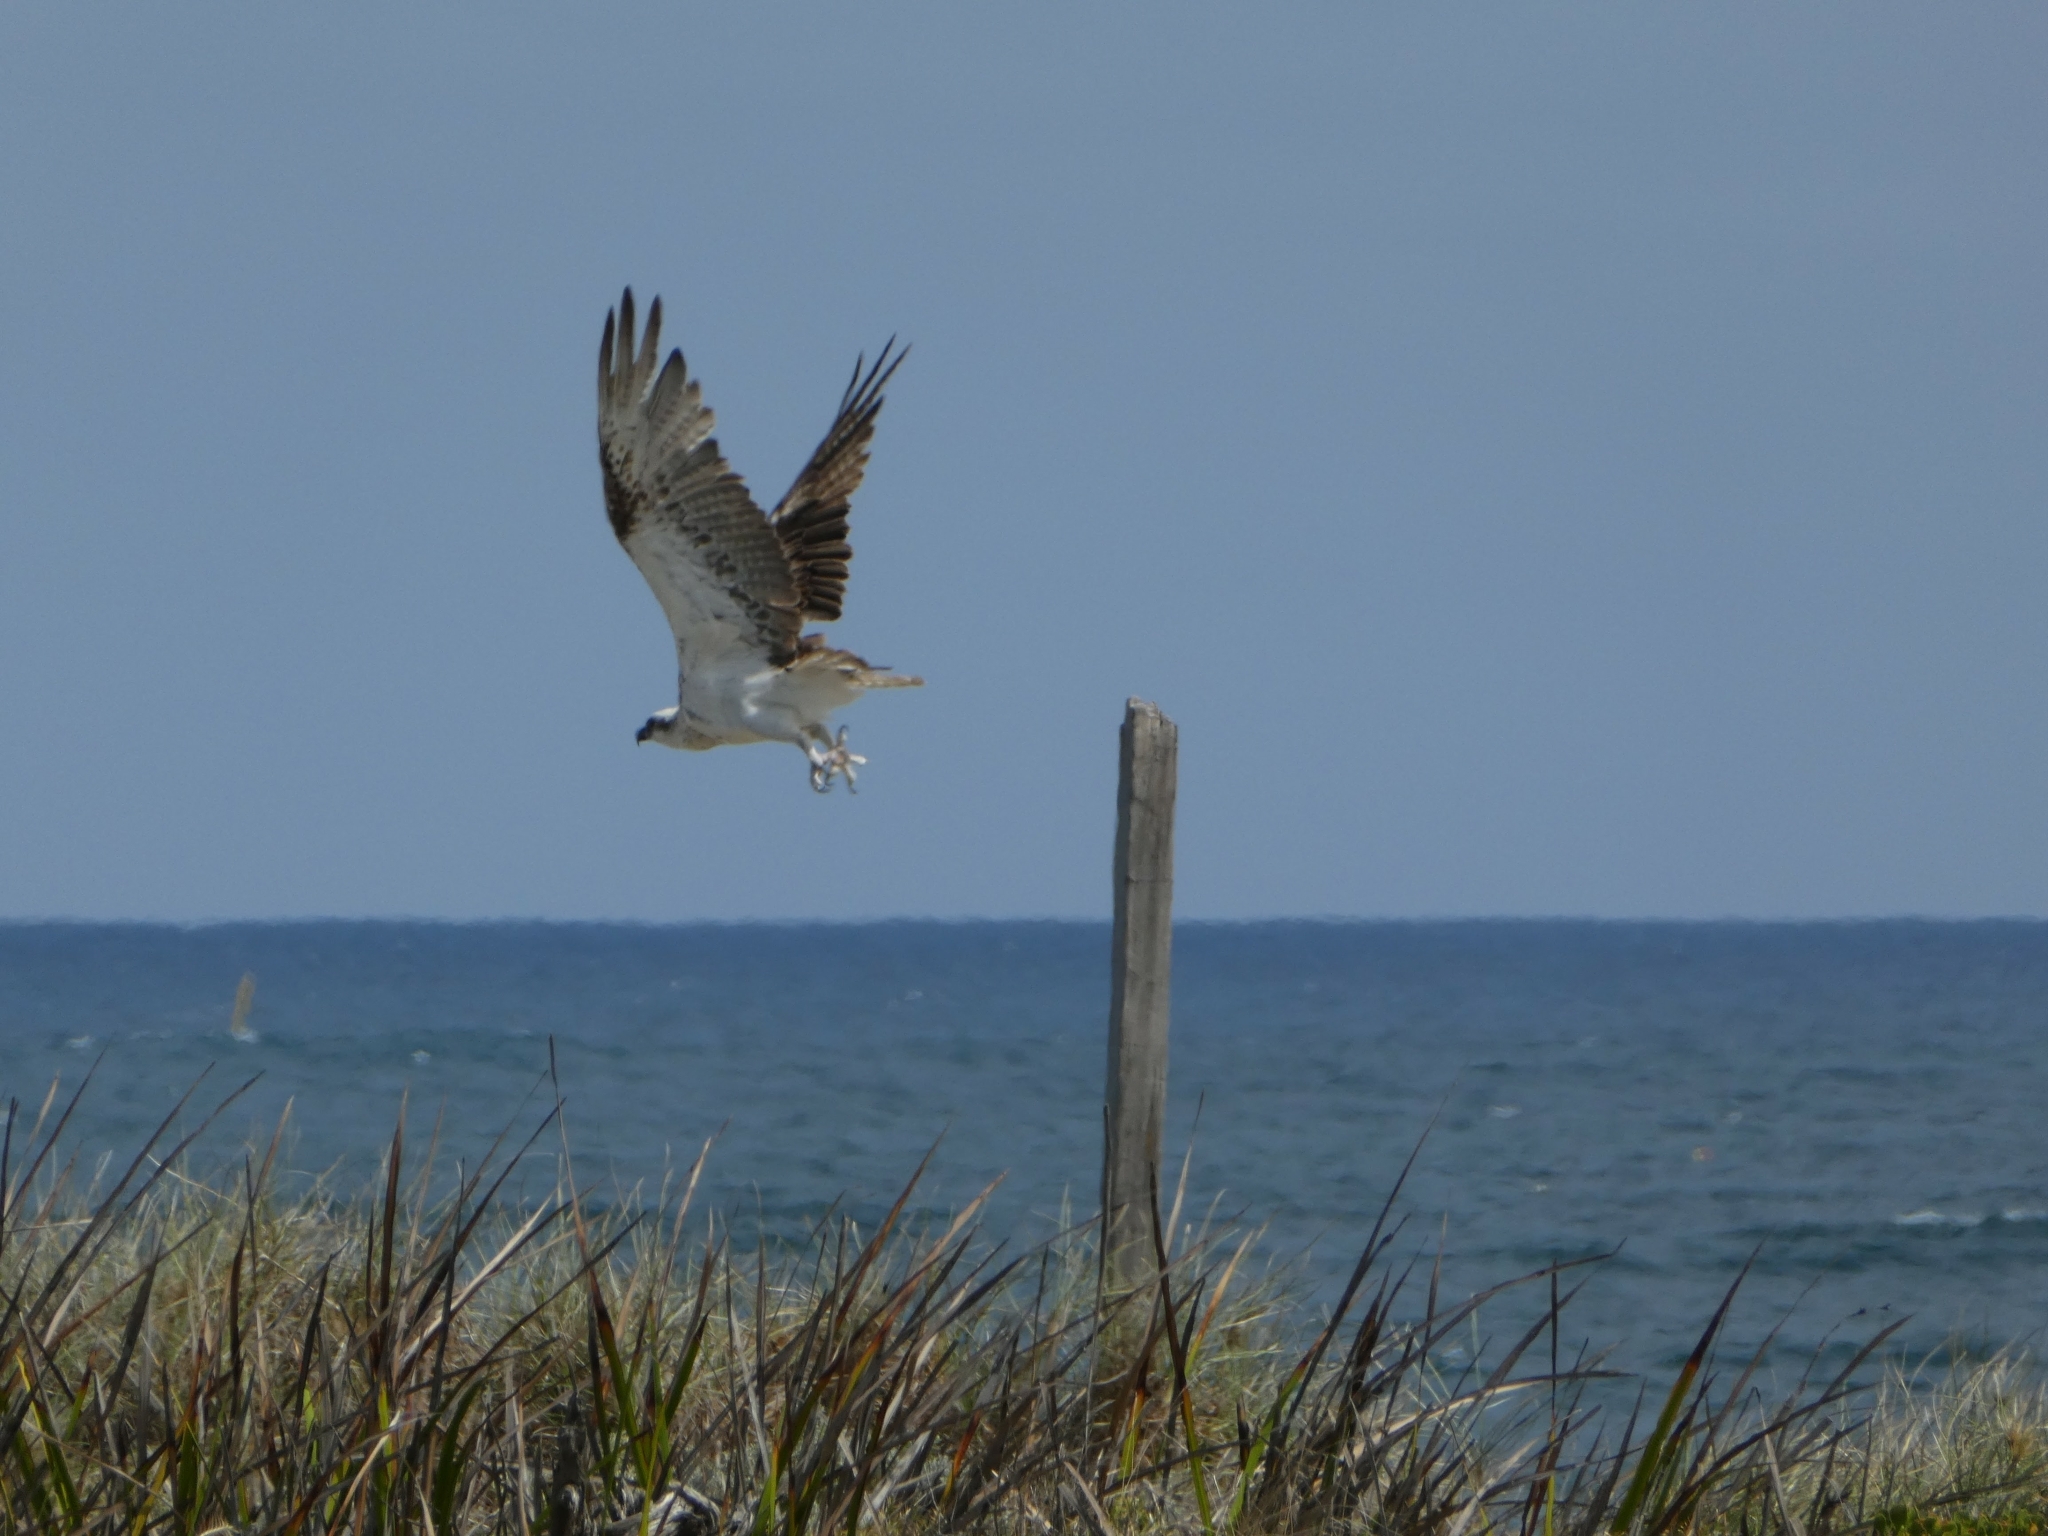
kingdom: Animalia
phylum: Chordata
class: Aves
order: Accipitriformes
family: Pandionidae
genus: Pandion
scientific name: Pandion haliaetus
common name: Osprey
